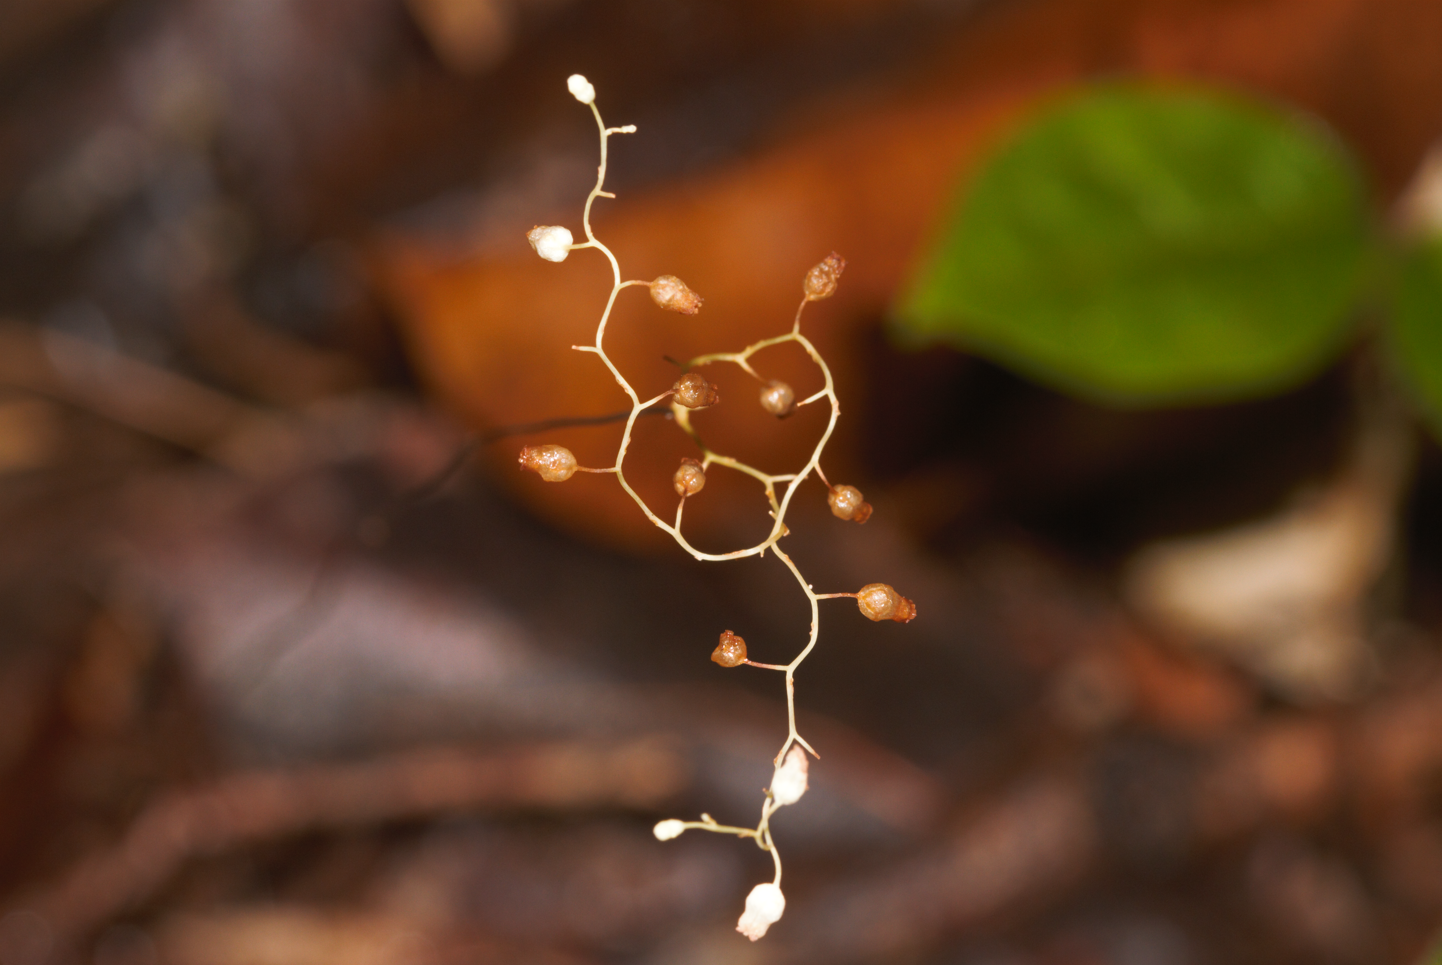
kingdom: Plantae
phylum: Tracheophyta
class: Liliopsida
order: Dioscoreales
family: Burmanniaceae
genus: Dictyostega
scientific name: Dictyostega orobanchoides
